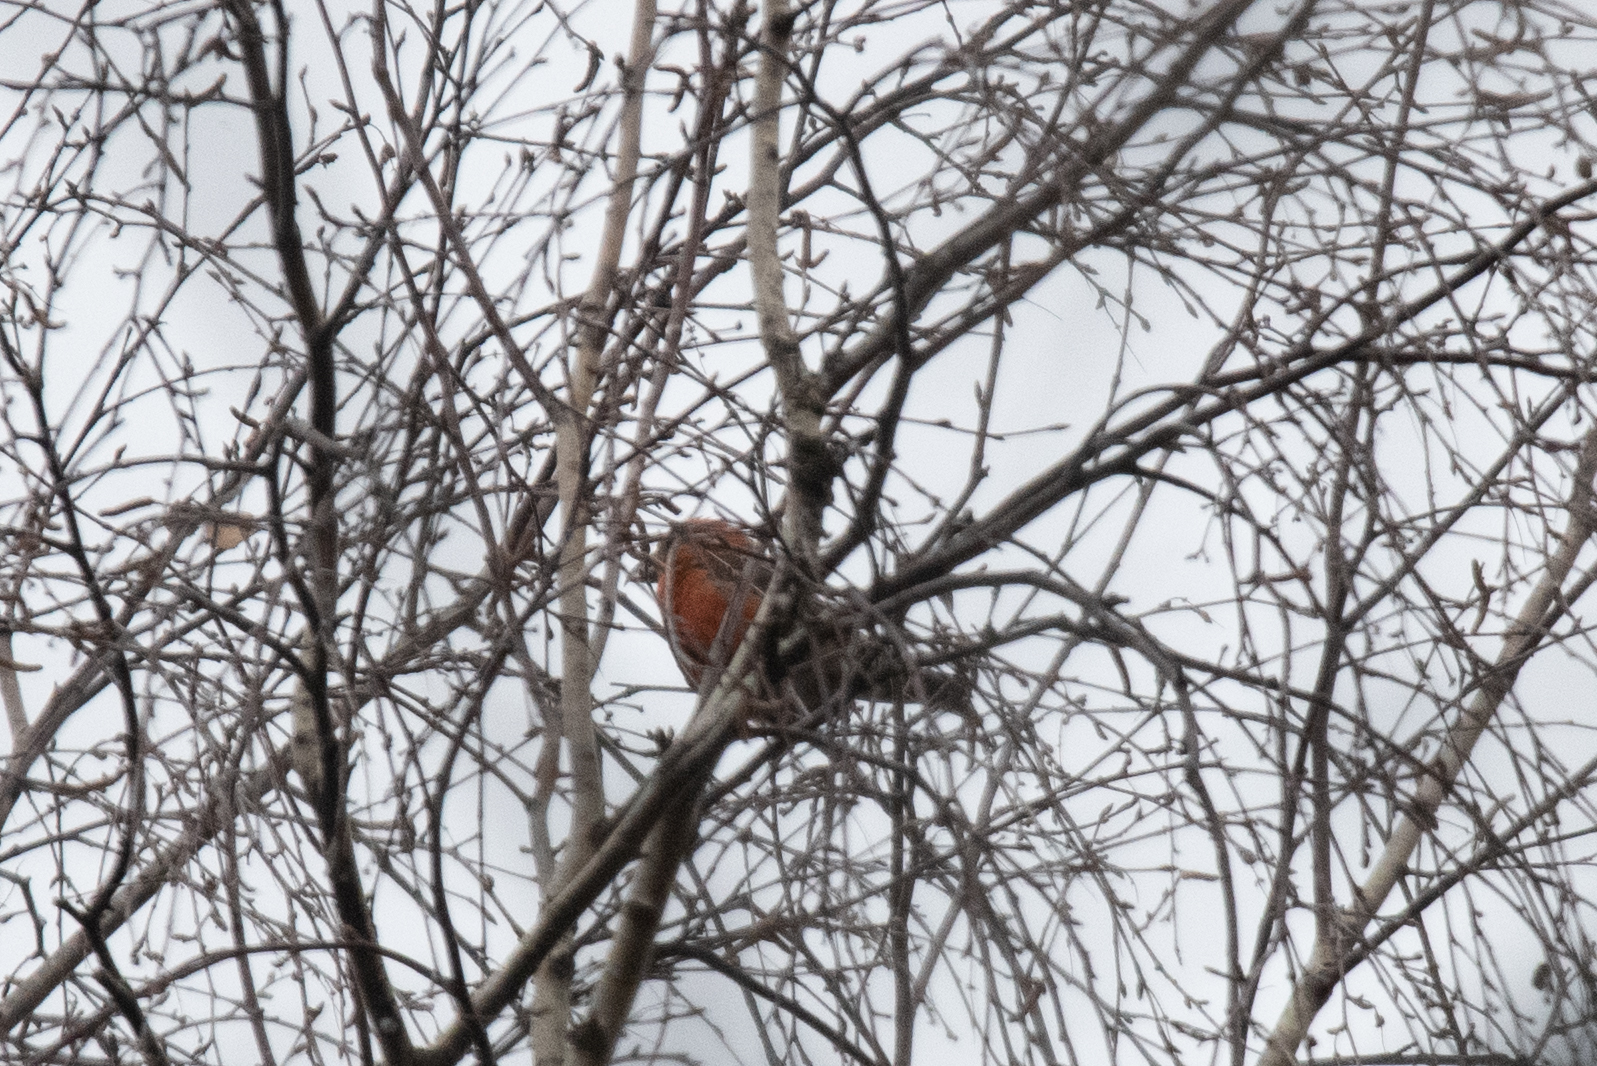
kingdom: Animalia
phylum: Chordata
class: Aves
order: Passeriformes
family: Fringillidae
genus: Loxia
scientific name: Loxia curvirostra
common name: Red crossbill
